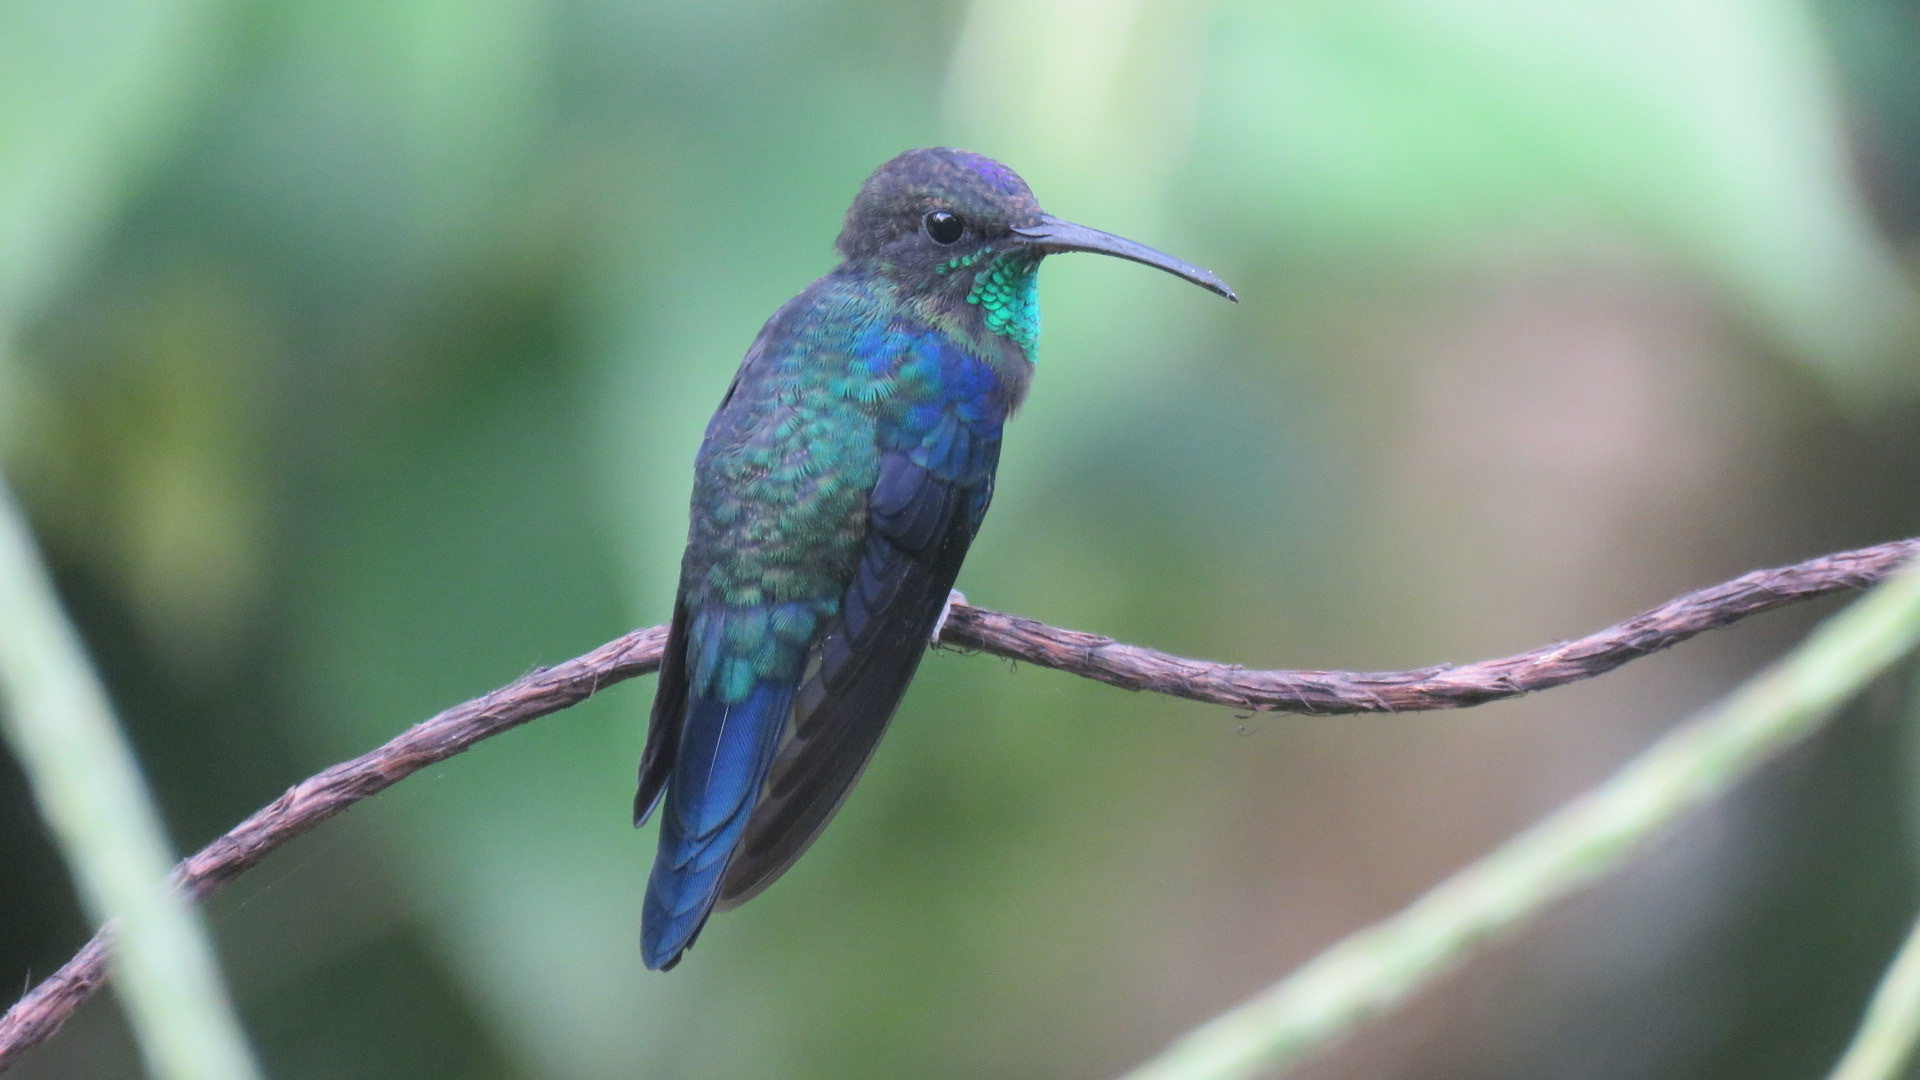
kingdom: Animalia
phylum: Chordata
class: Aves
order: Apodiformes
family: Trochilidae
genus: Thalurania
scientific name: Thalurania colombica
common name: Crowned woodnymph
